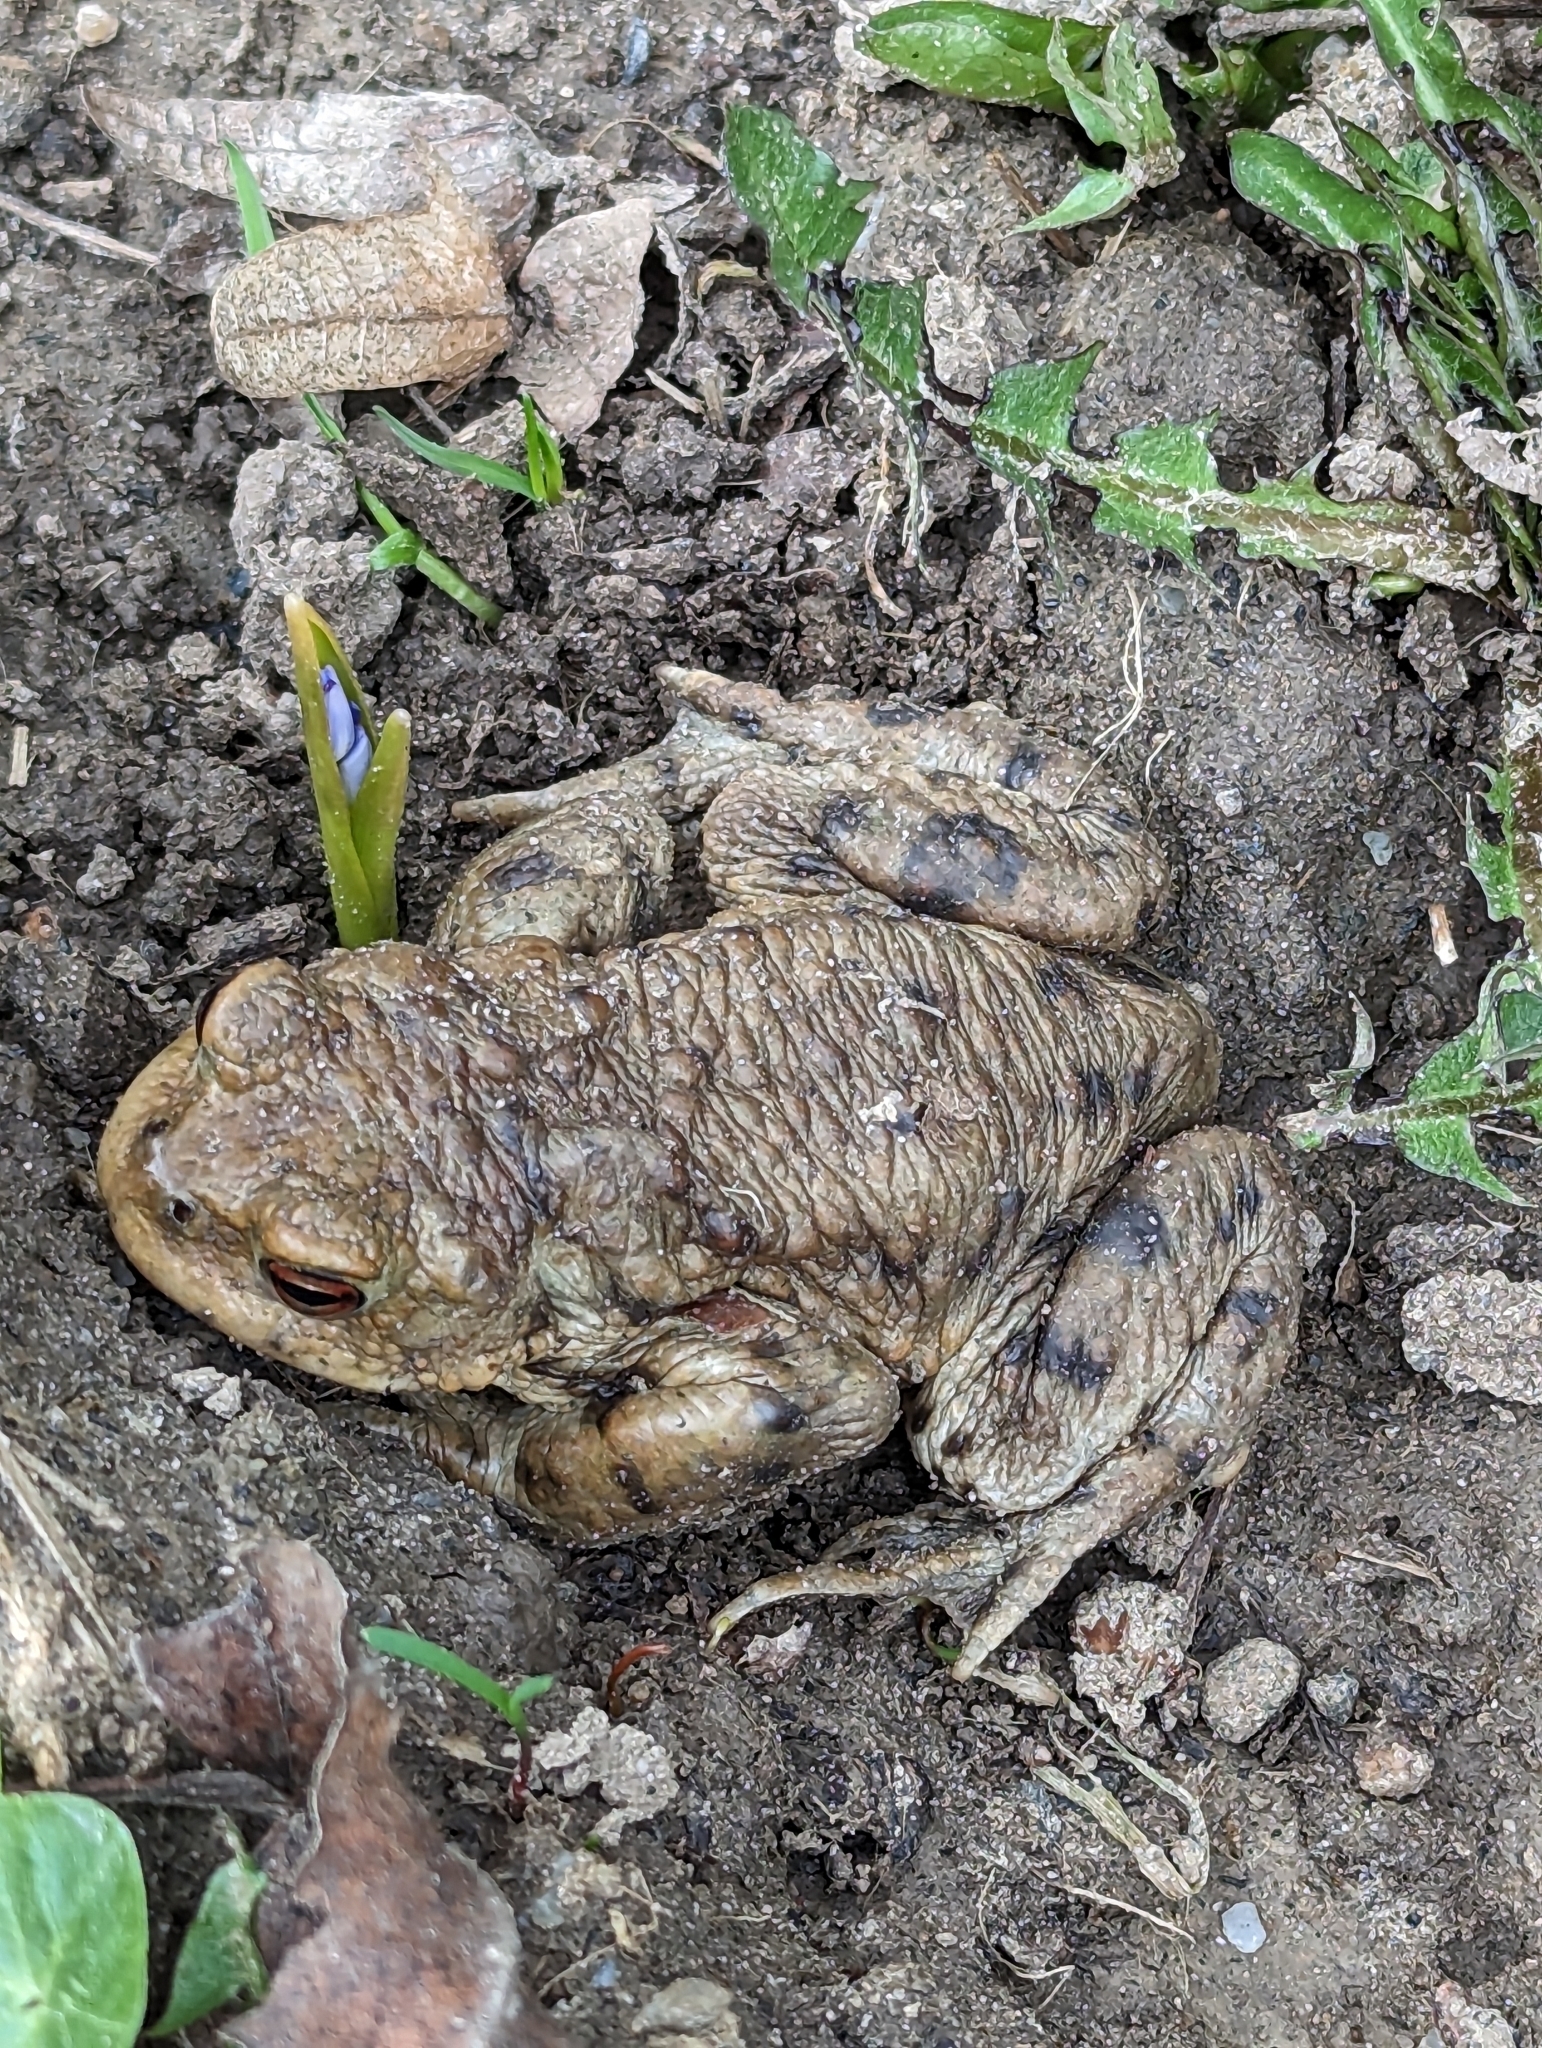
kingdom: Animalia
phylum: Chordata
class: Amphibia
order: Anura
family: Bufonidae
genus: Bufo
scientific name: Bufo bufo
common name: Common toad
